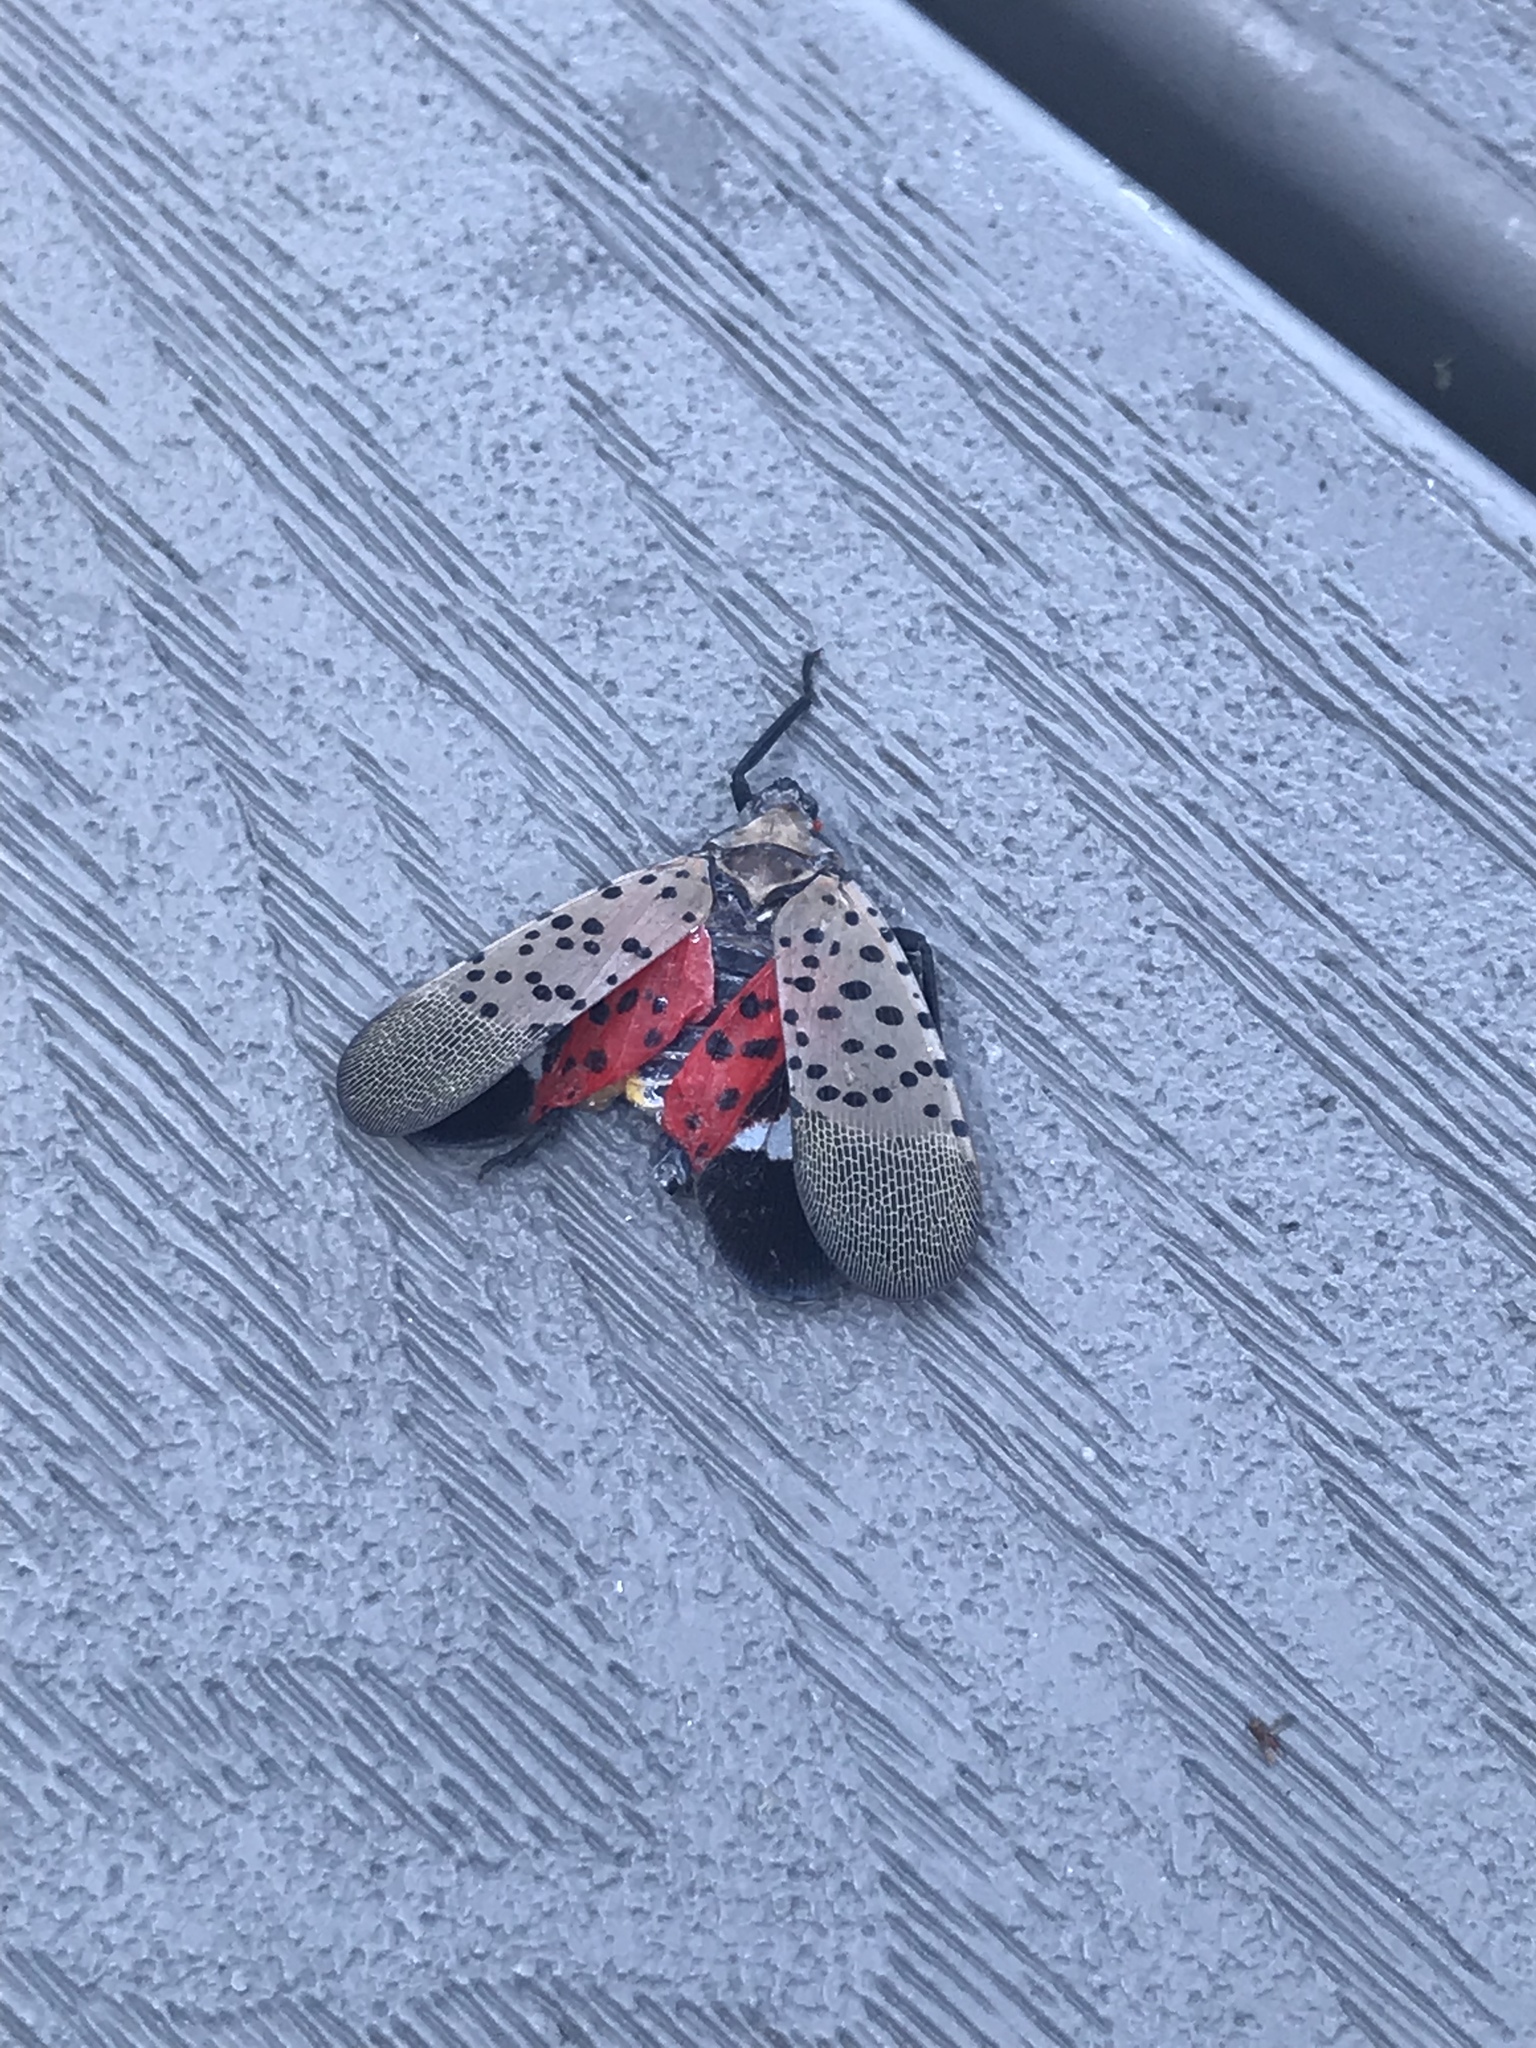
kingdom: Animalia
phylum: Arthropoda
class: Insecta
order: Hemiptera
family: Fulgoridae
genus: Lycorma
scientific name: Lycorma delicatula
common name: Spotted lanternfly
